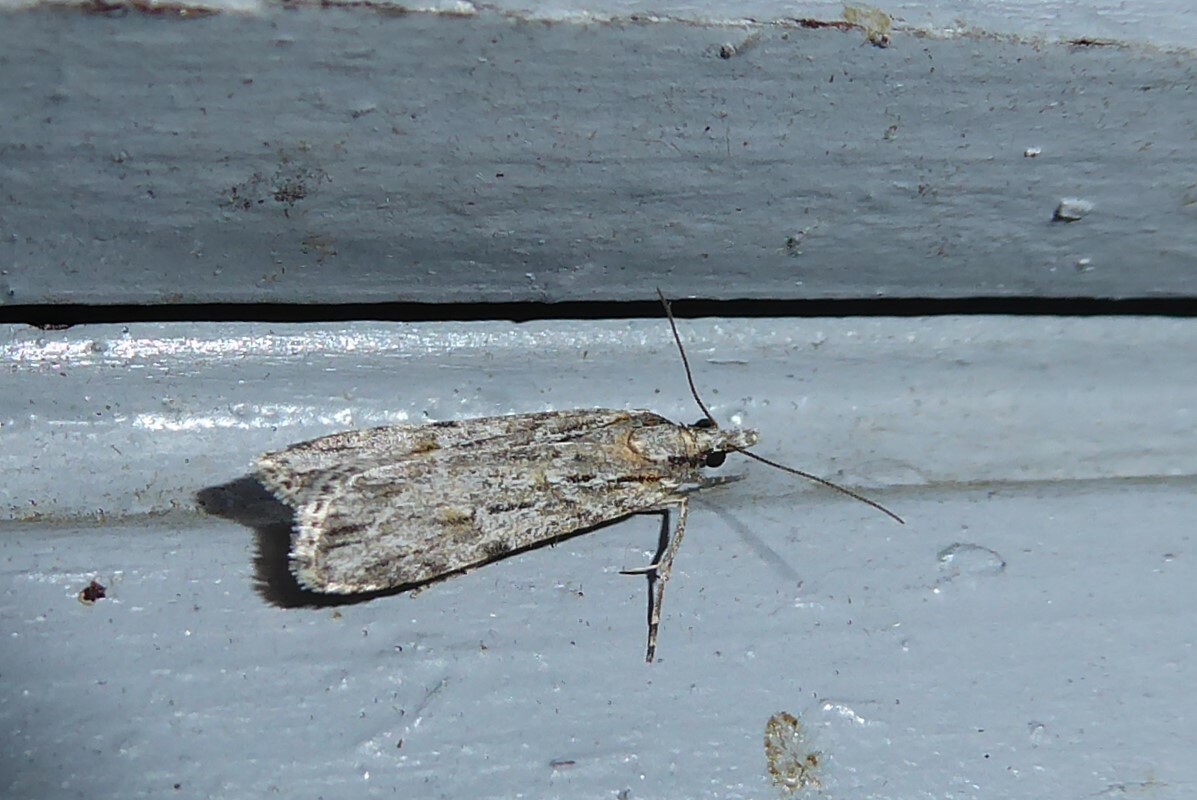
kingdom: Animalia
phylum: Arthropoda
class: Insecta
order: Lepidoptera
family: Crambidae
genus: Scoparia
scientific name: Scoparia chalicodes
